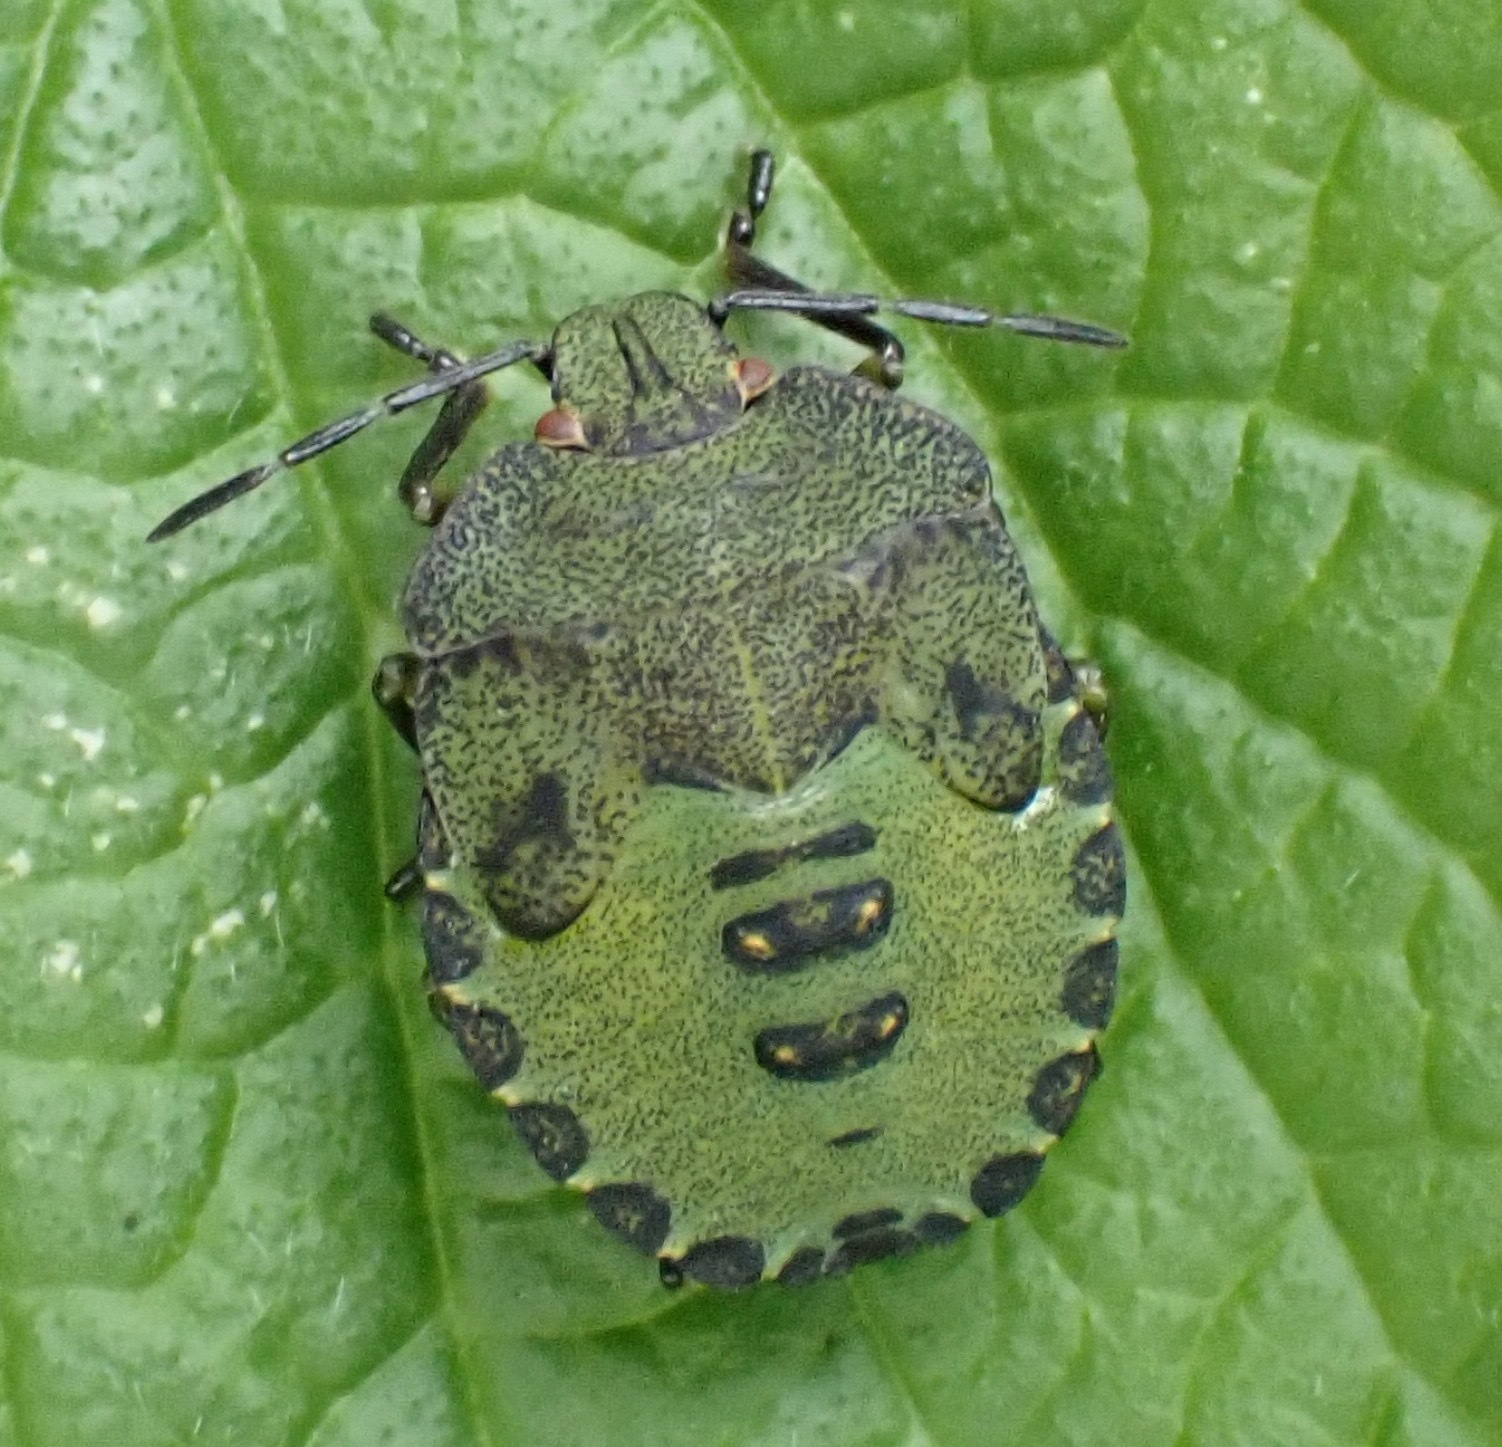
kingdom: Animalia
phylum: Arthropoda
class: Insecta
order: Hemiptera
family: Pentatomidae
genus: Palomena
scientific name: Palomena prasina
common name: Green shieldbug
